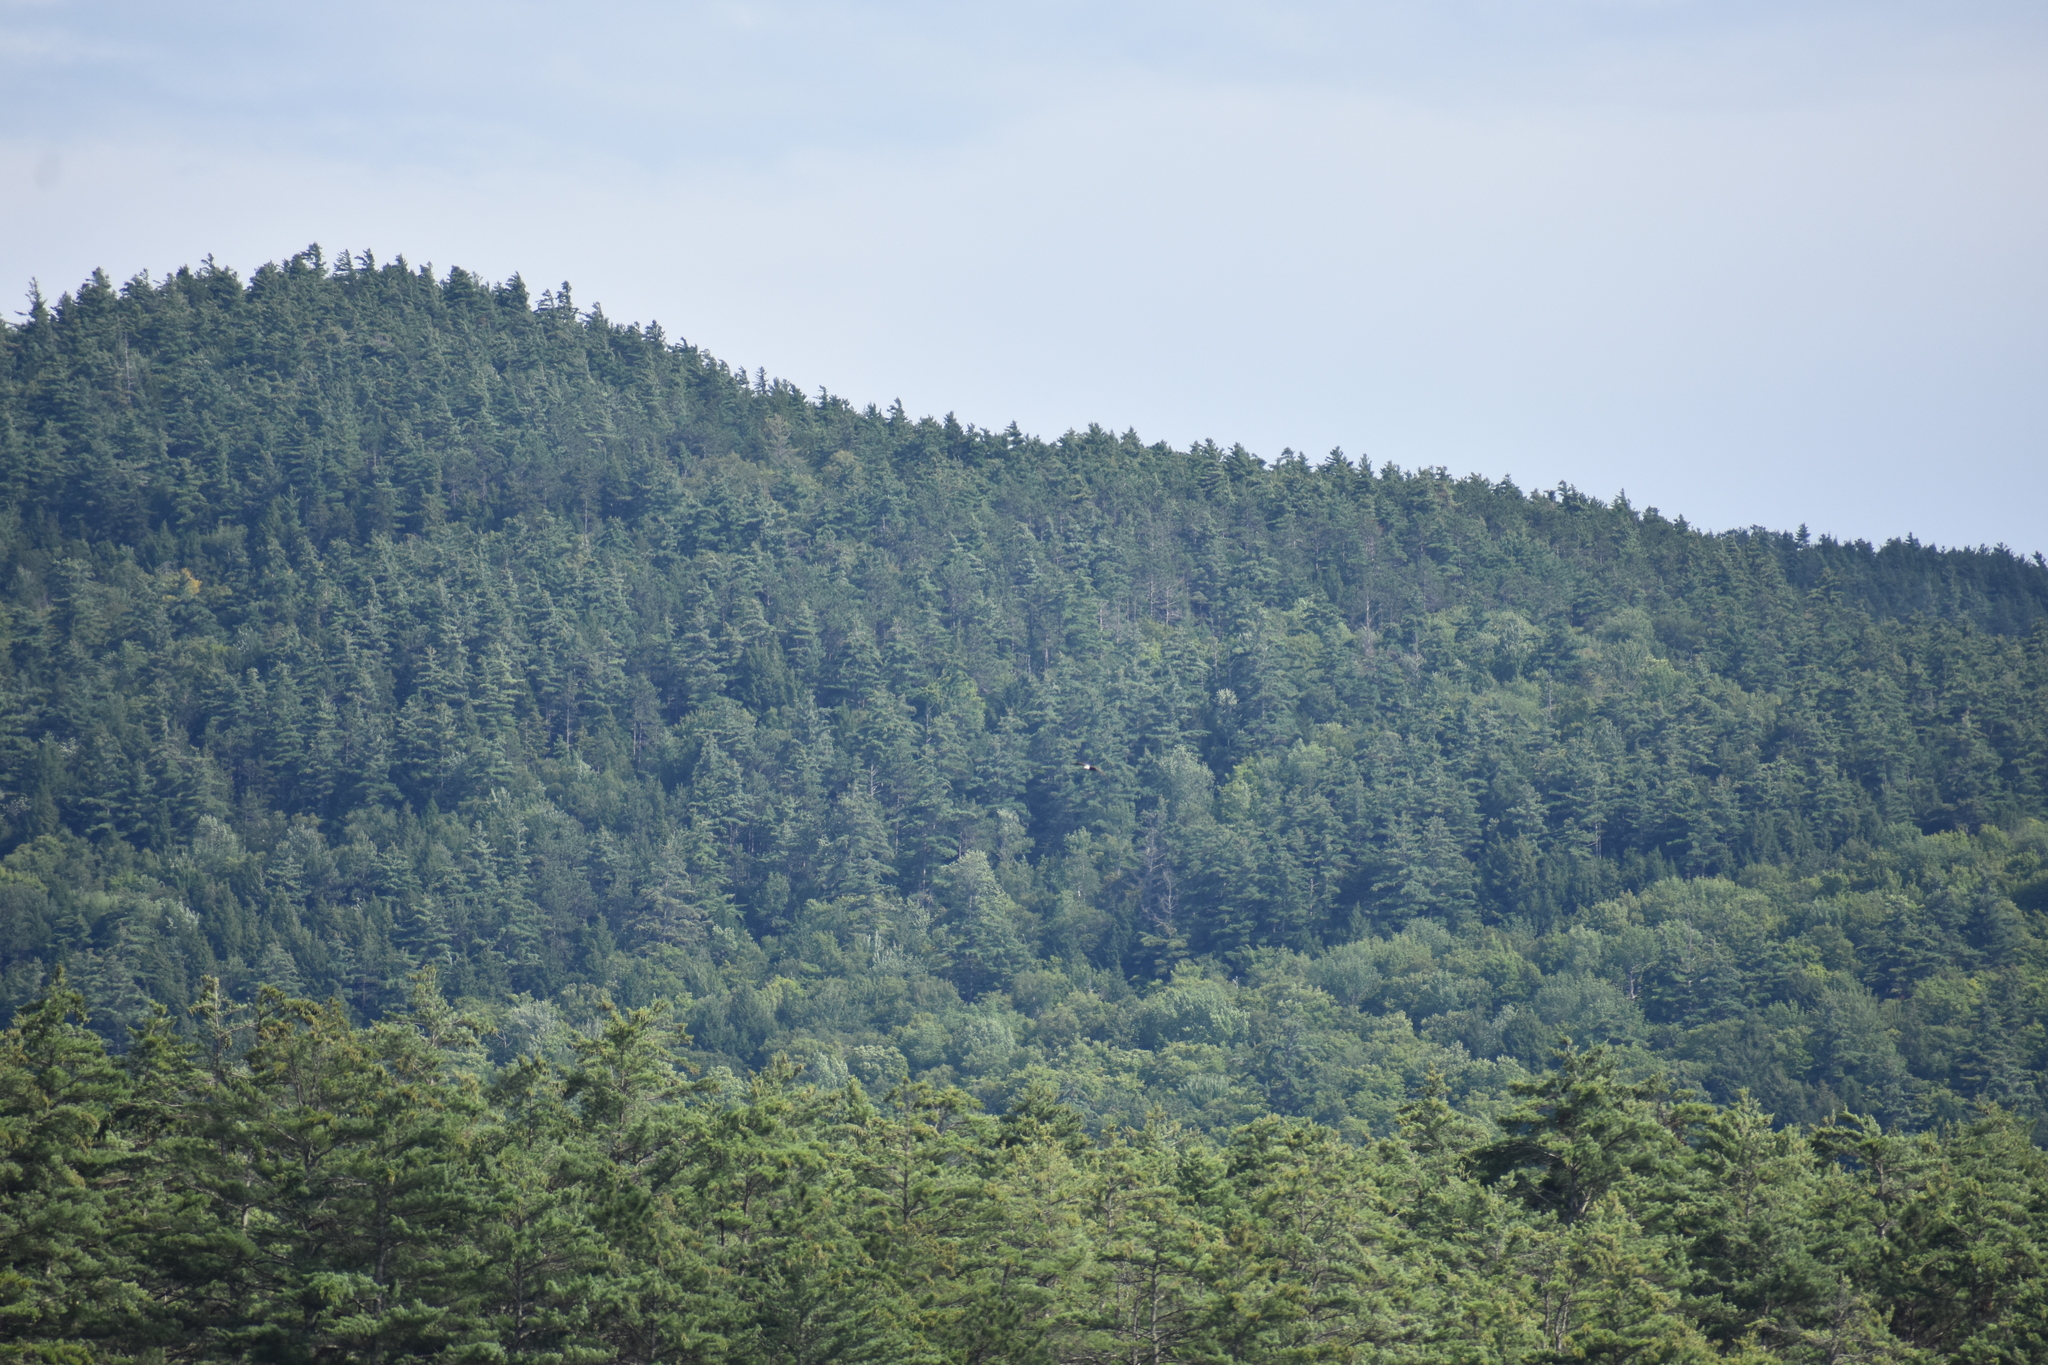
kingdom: Animalia
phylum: Chordata
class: Aves
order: Accipitriformes
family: Accipitridae
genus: Haliaeetus
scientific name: Haliaeetus leucocephalus
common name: Bald eagle
